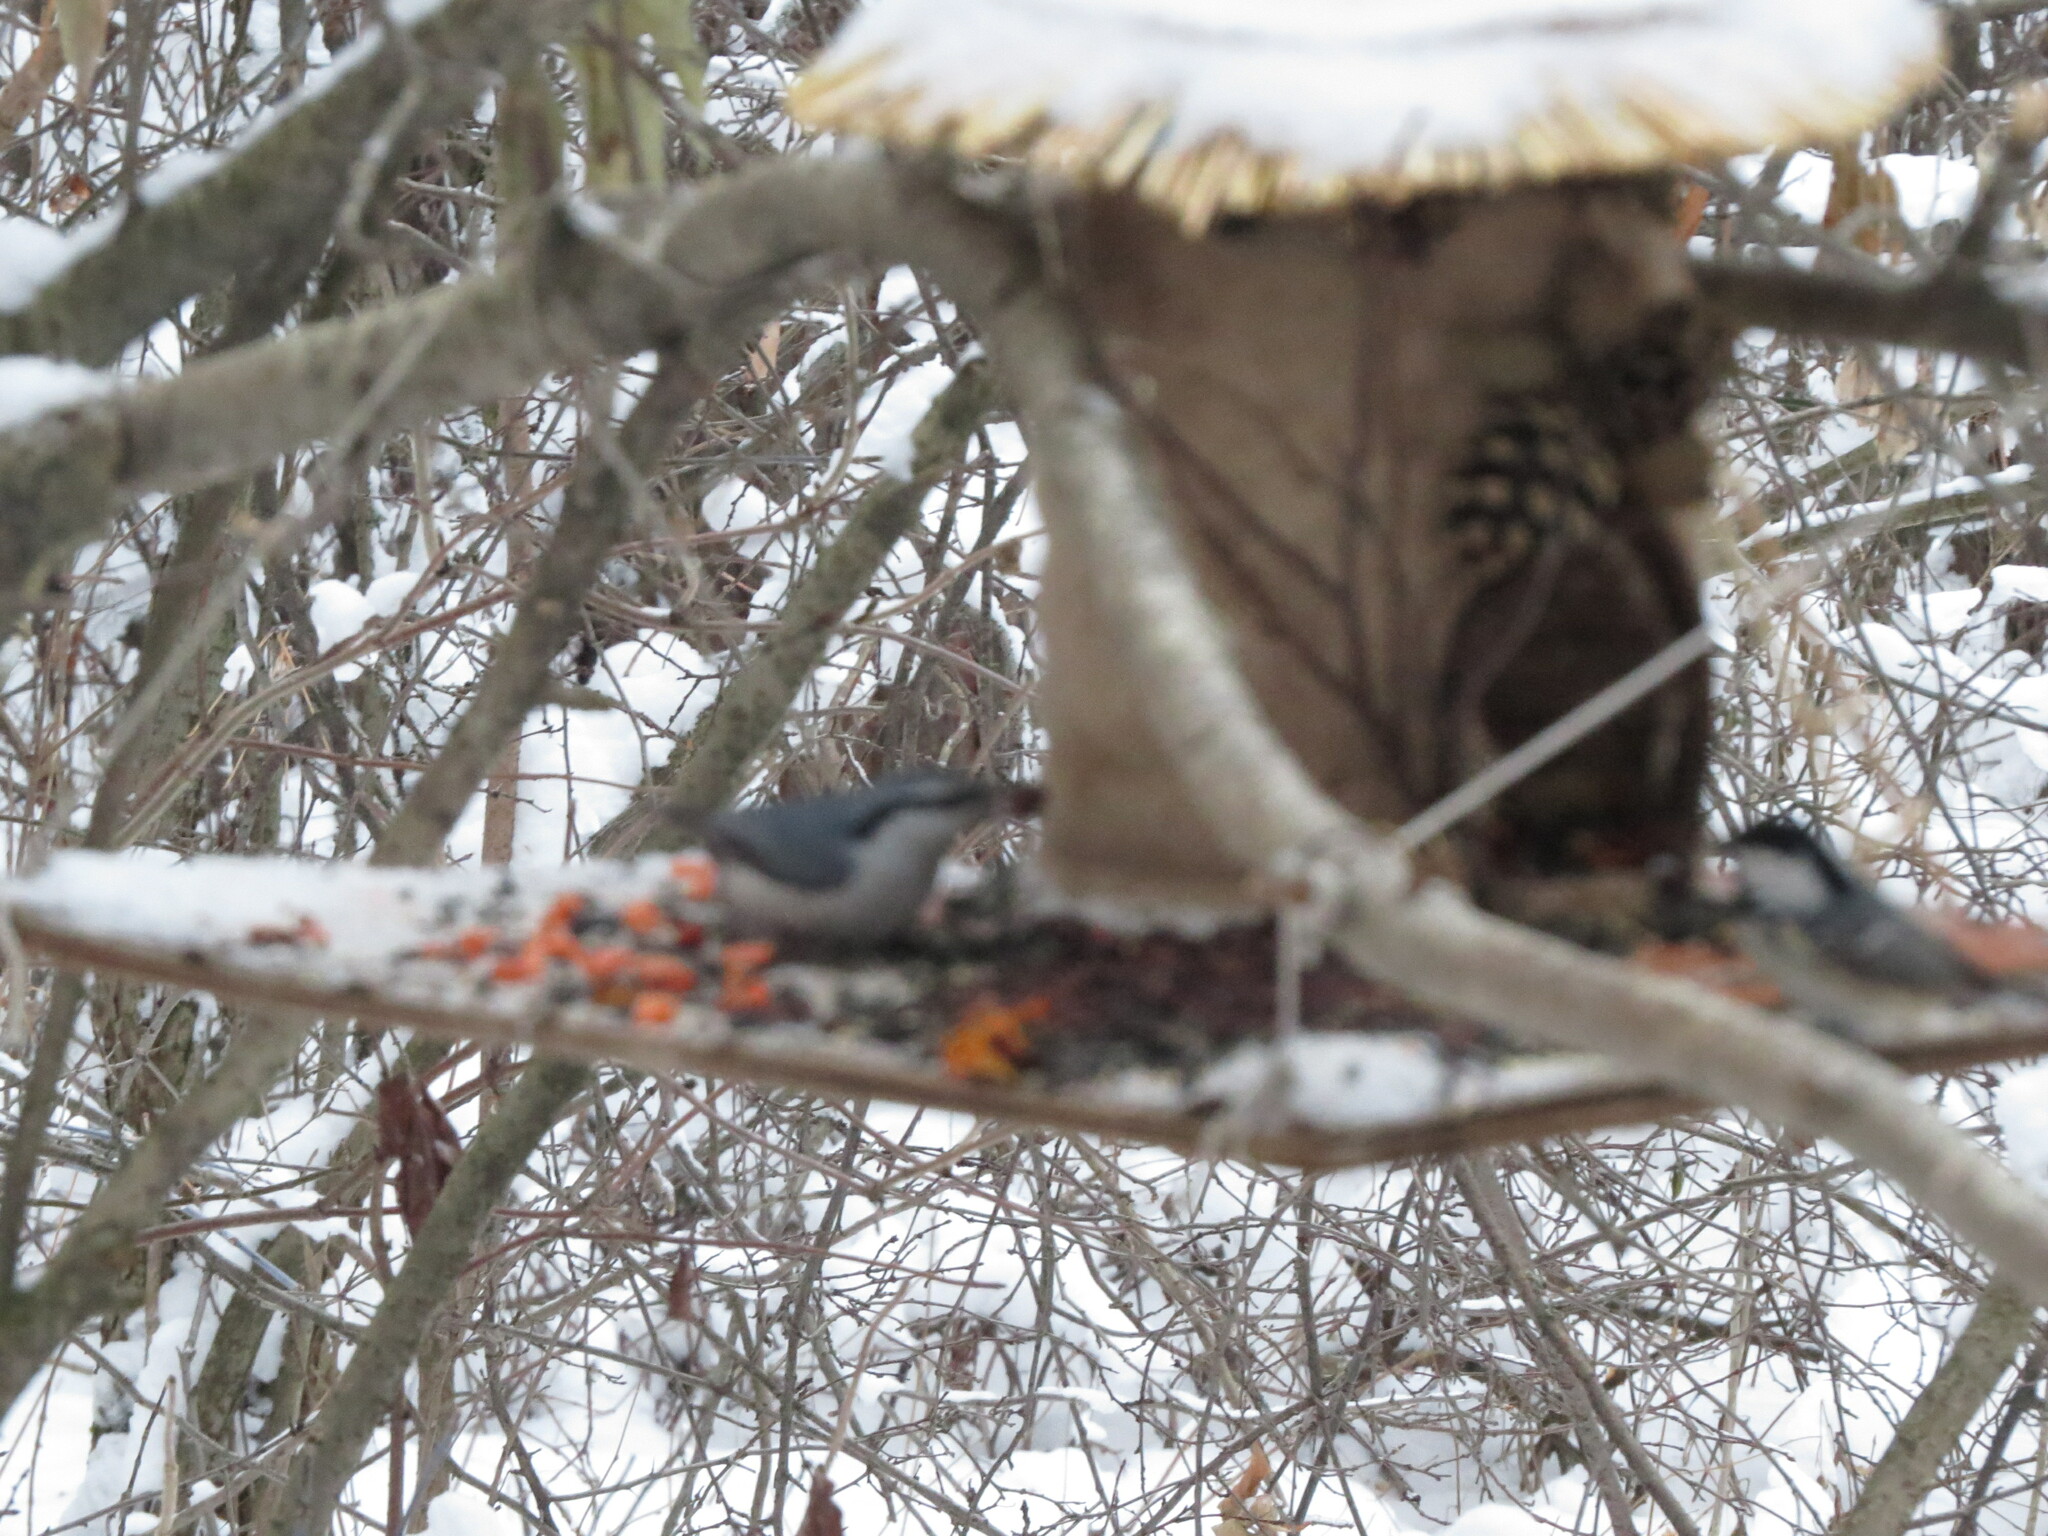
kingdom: Animalia
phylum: Chordata
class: Aves
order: Passeriformes
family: Sittidae
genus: Sitta
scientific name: Sitta europaea
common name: Eurasian nuthatch
